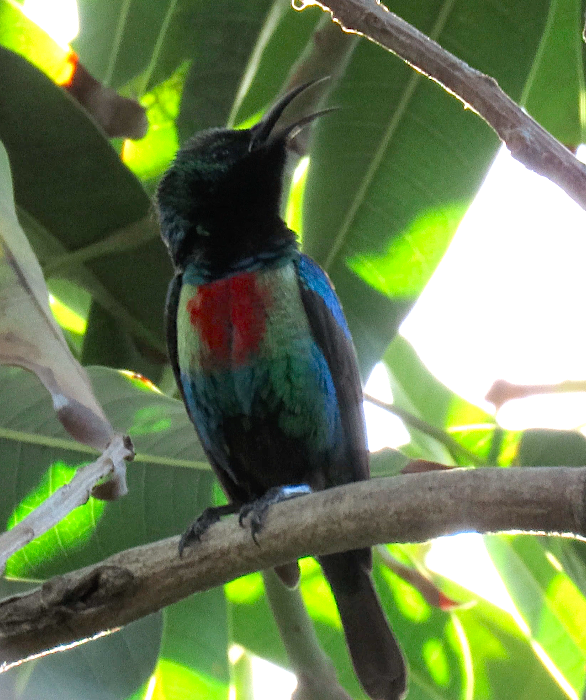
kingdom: Animalia
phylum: Chordata
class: Aves
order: Passeriformes
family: Nectariniidae
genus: Cinnyris
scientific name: Cinnyris pulchellus
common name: Beautiful sunbird
